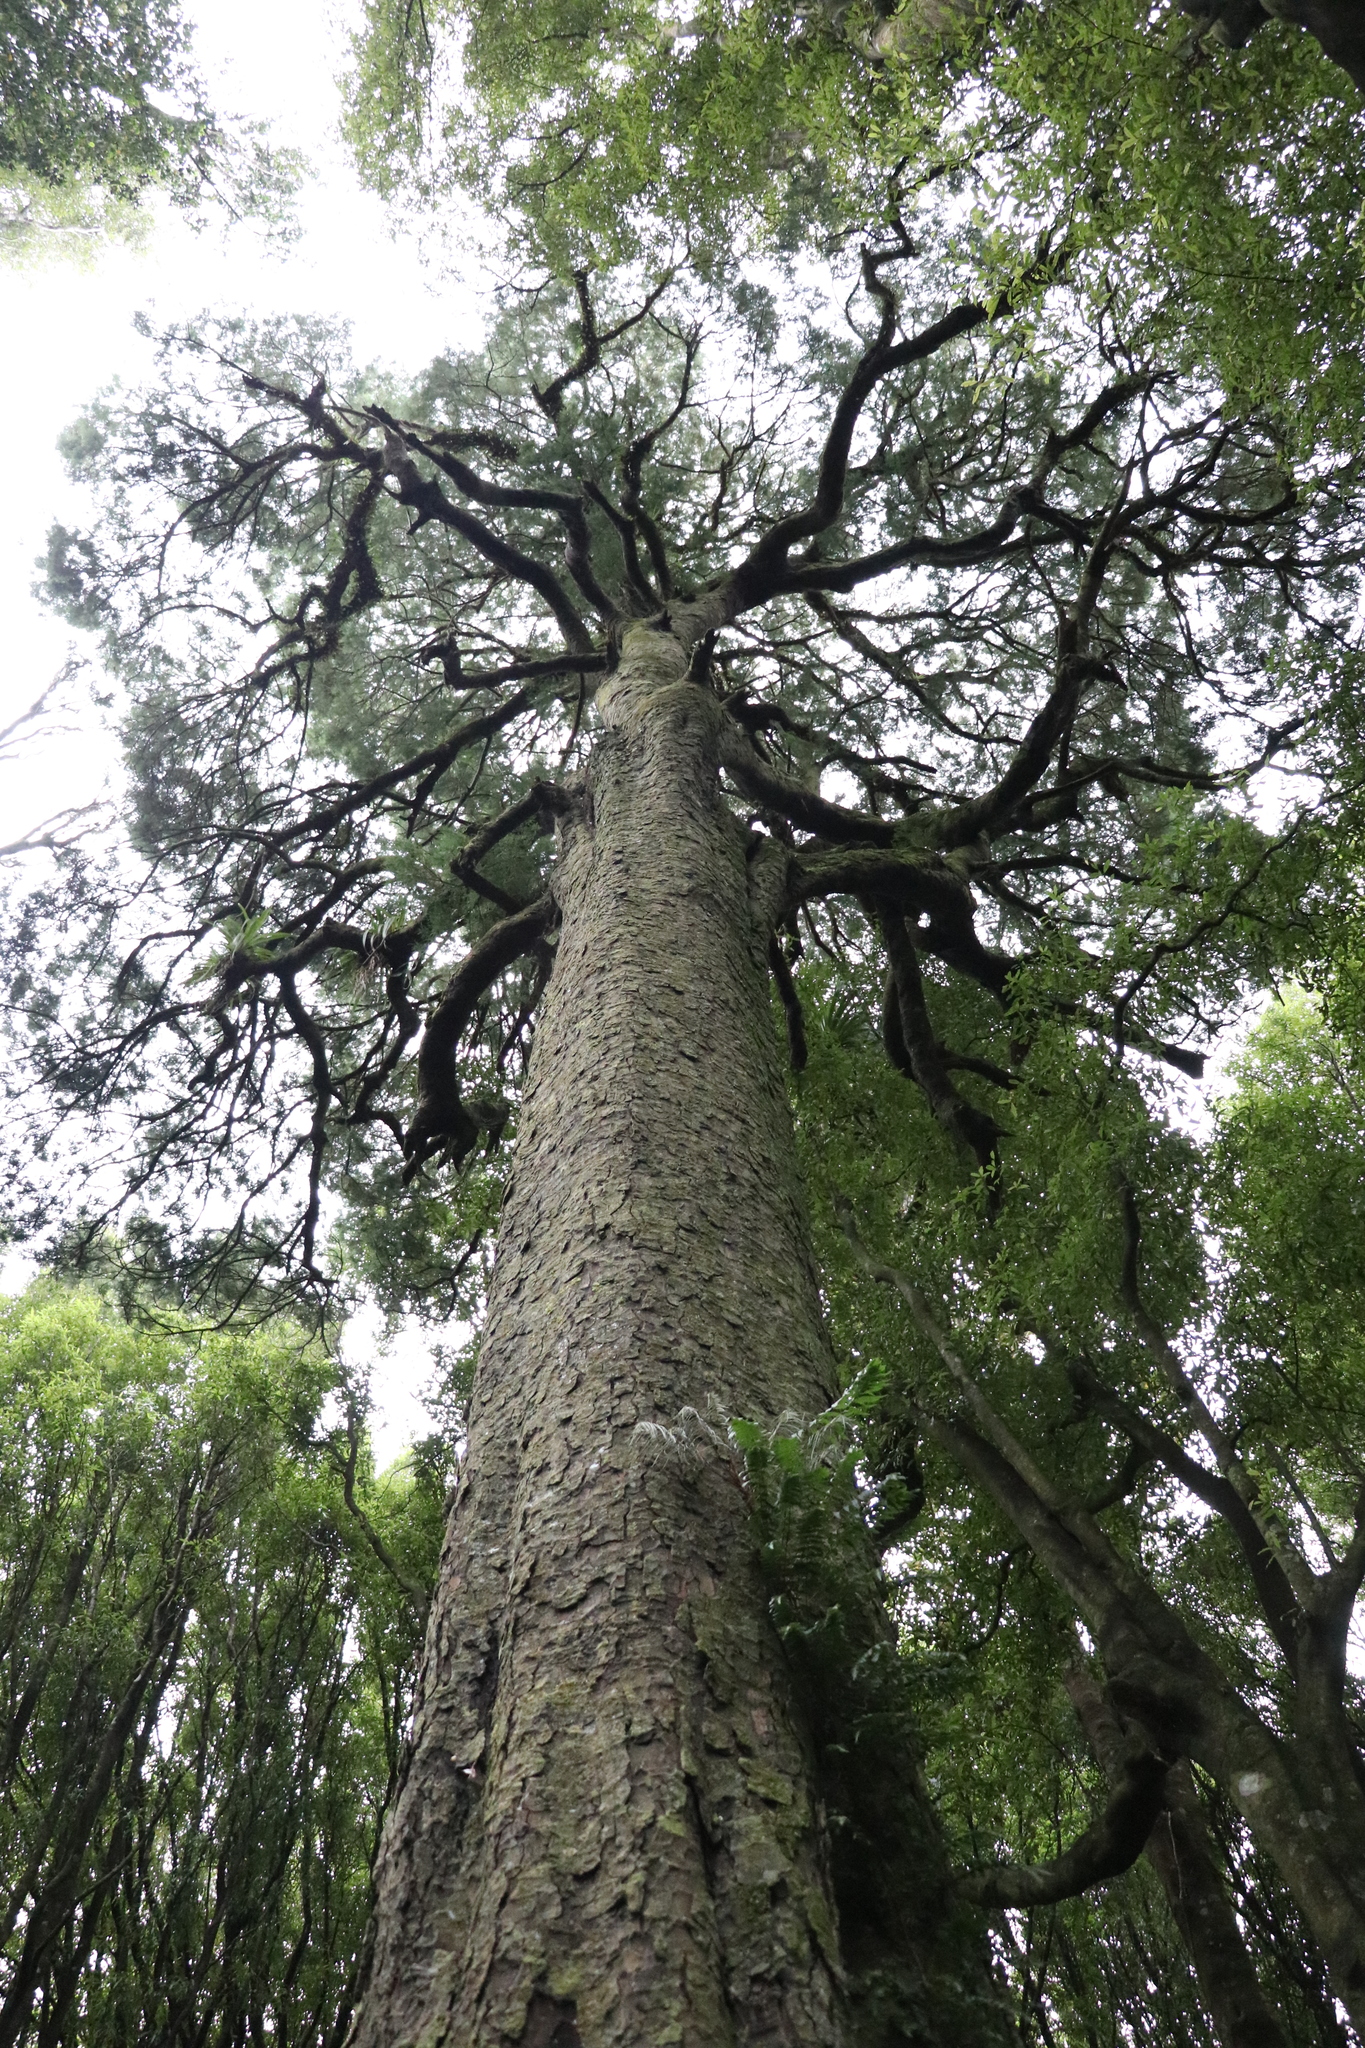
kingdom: Plantae
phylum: Tracheophyta
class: Pinopsida
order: Pinales
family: Podocarpaceae
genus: Dacrycarpus
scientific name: Dacrycarpus dacrydioides
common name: White pine
